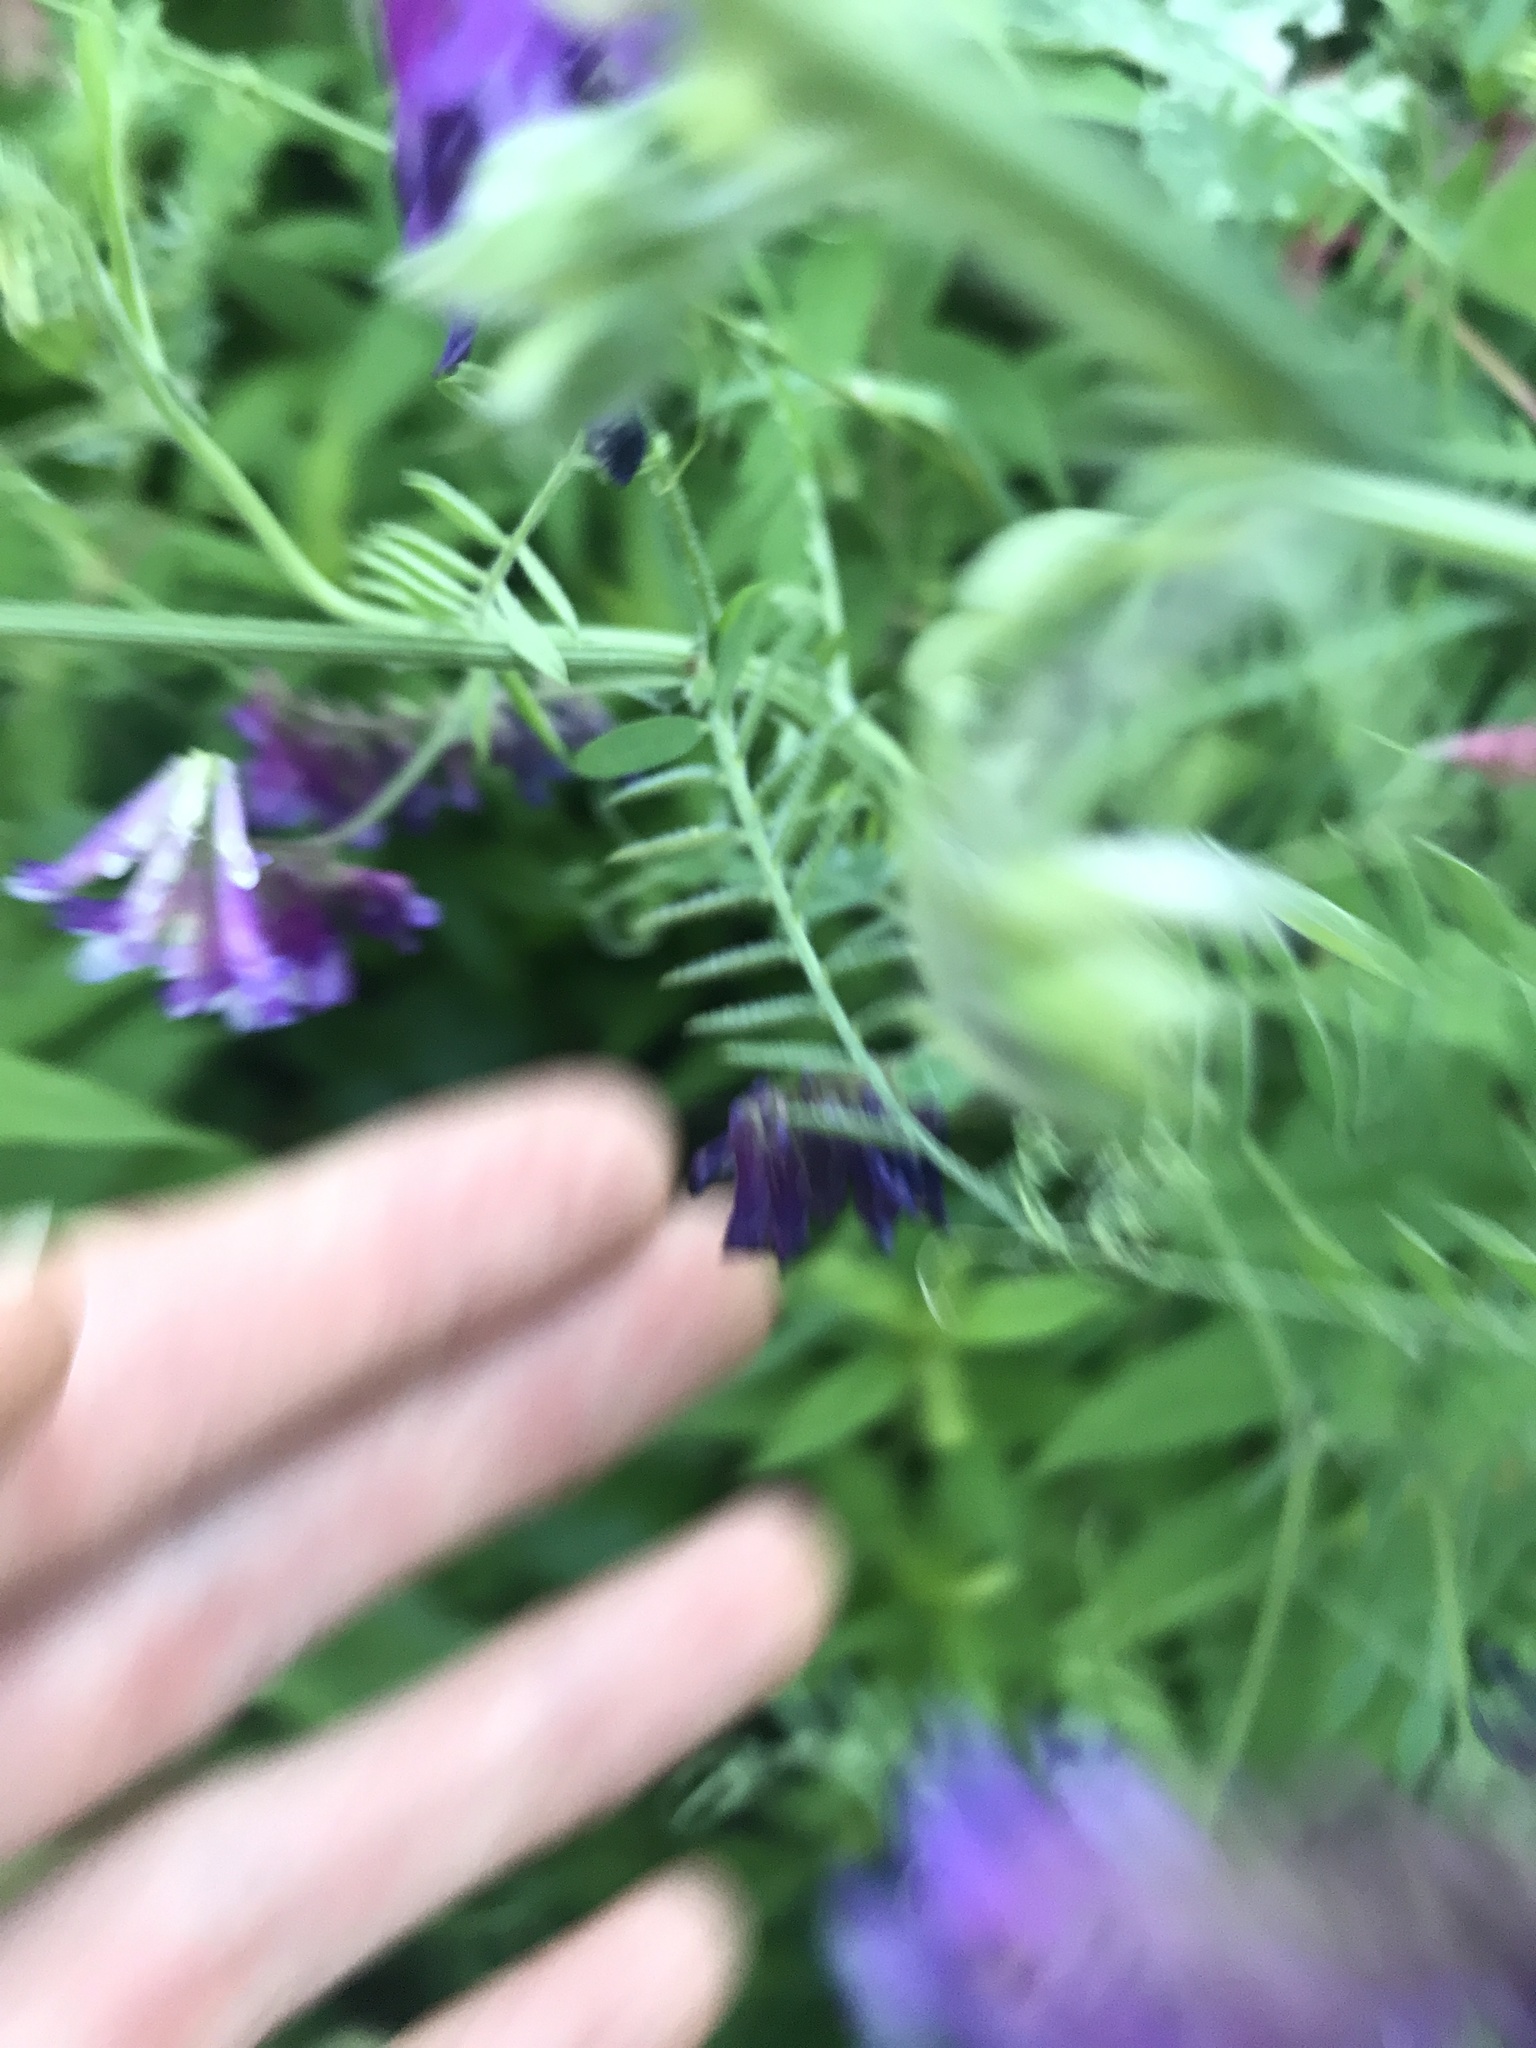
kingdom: Plantae
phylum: Tracheophyta
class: Magnoliopsida
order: Fabales
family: Fabaceae
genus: Vicia
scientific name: Vicia villosa
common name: Fodder vetch
